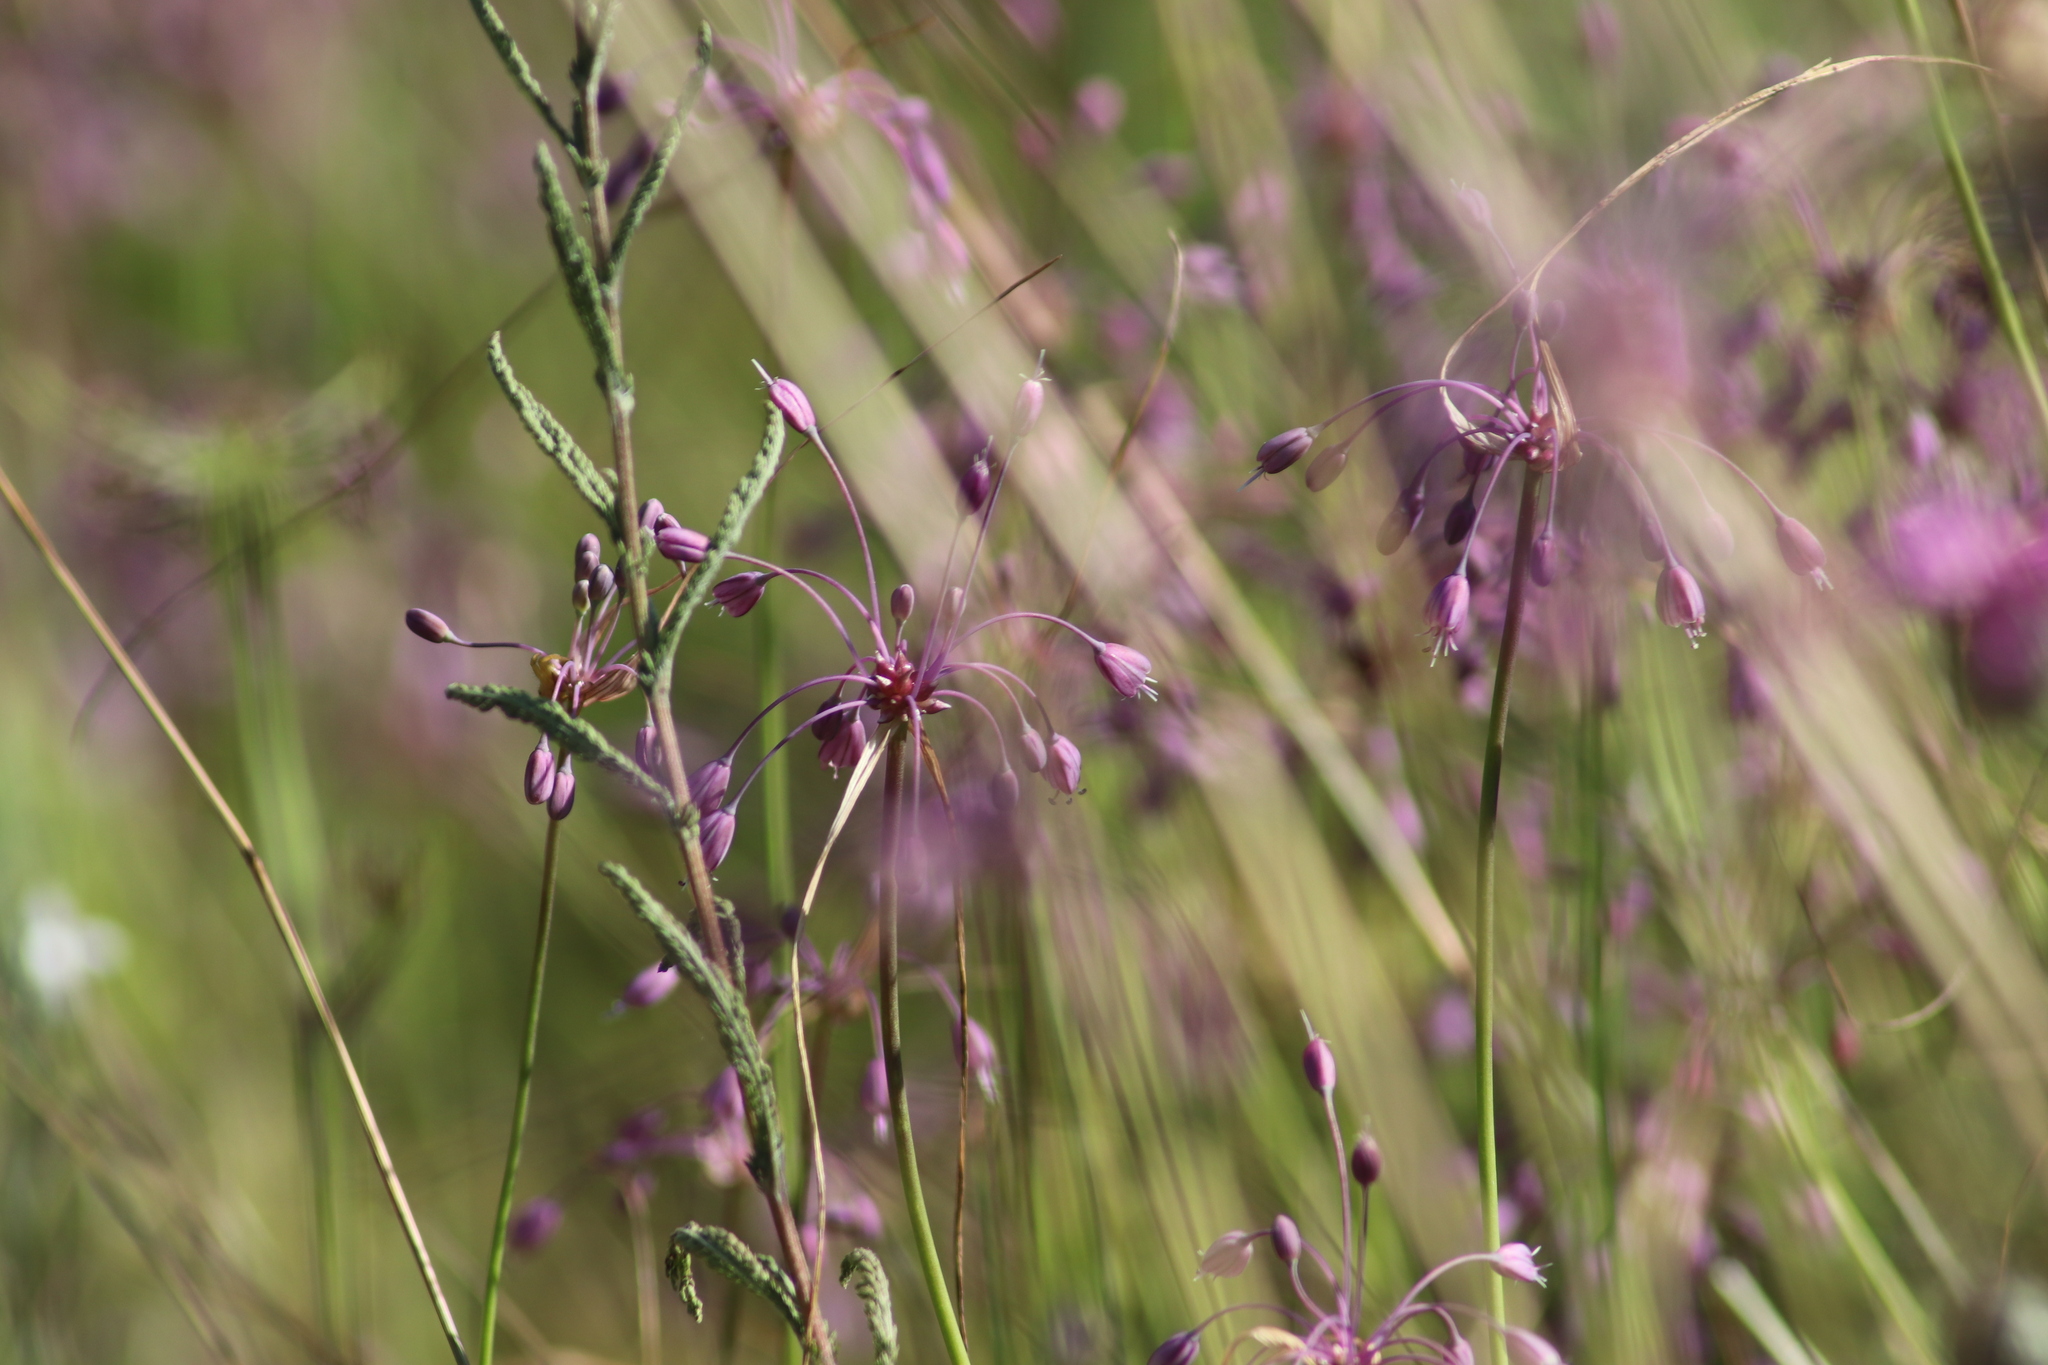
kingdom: Plantae
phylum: Tracheophyta
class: Liliopsida
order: Asparagales
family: Amaryllidaceae
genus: Allium
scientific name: Allium carinatum
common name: Keeled garlic
